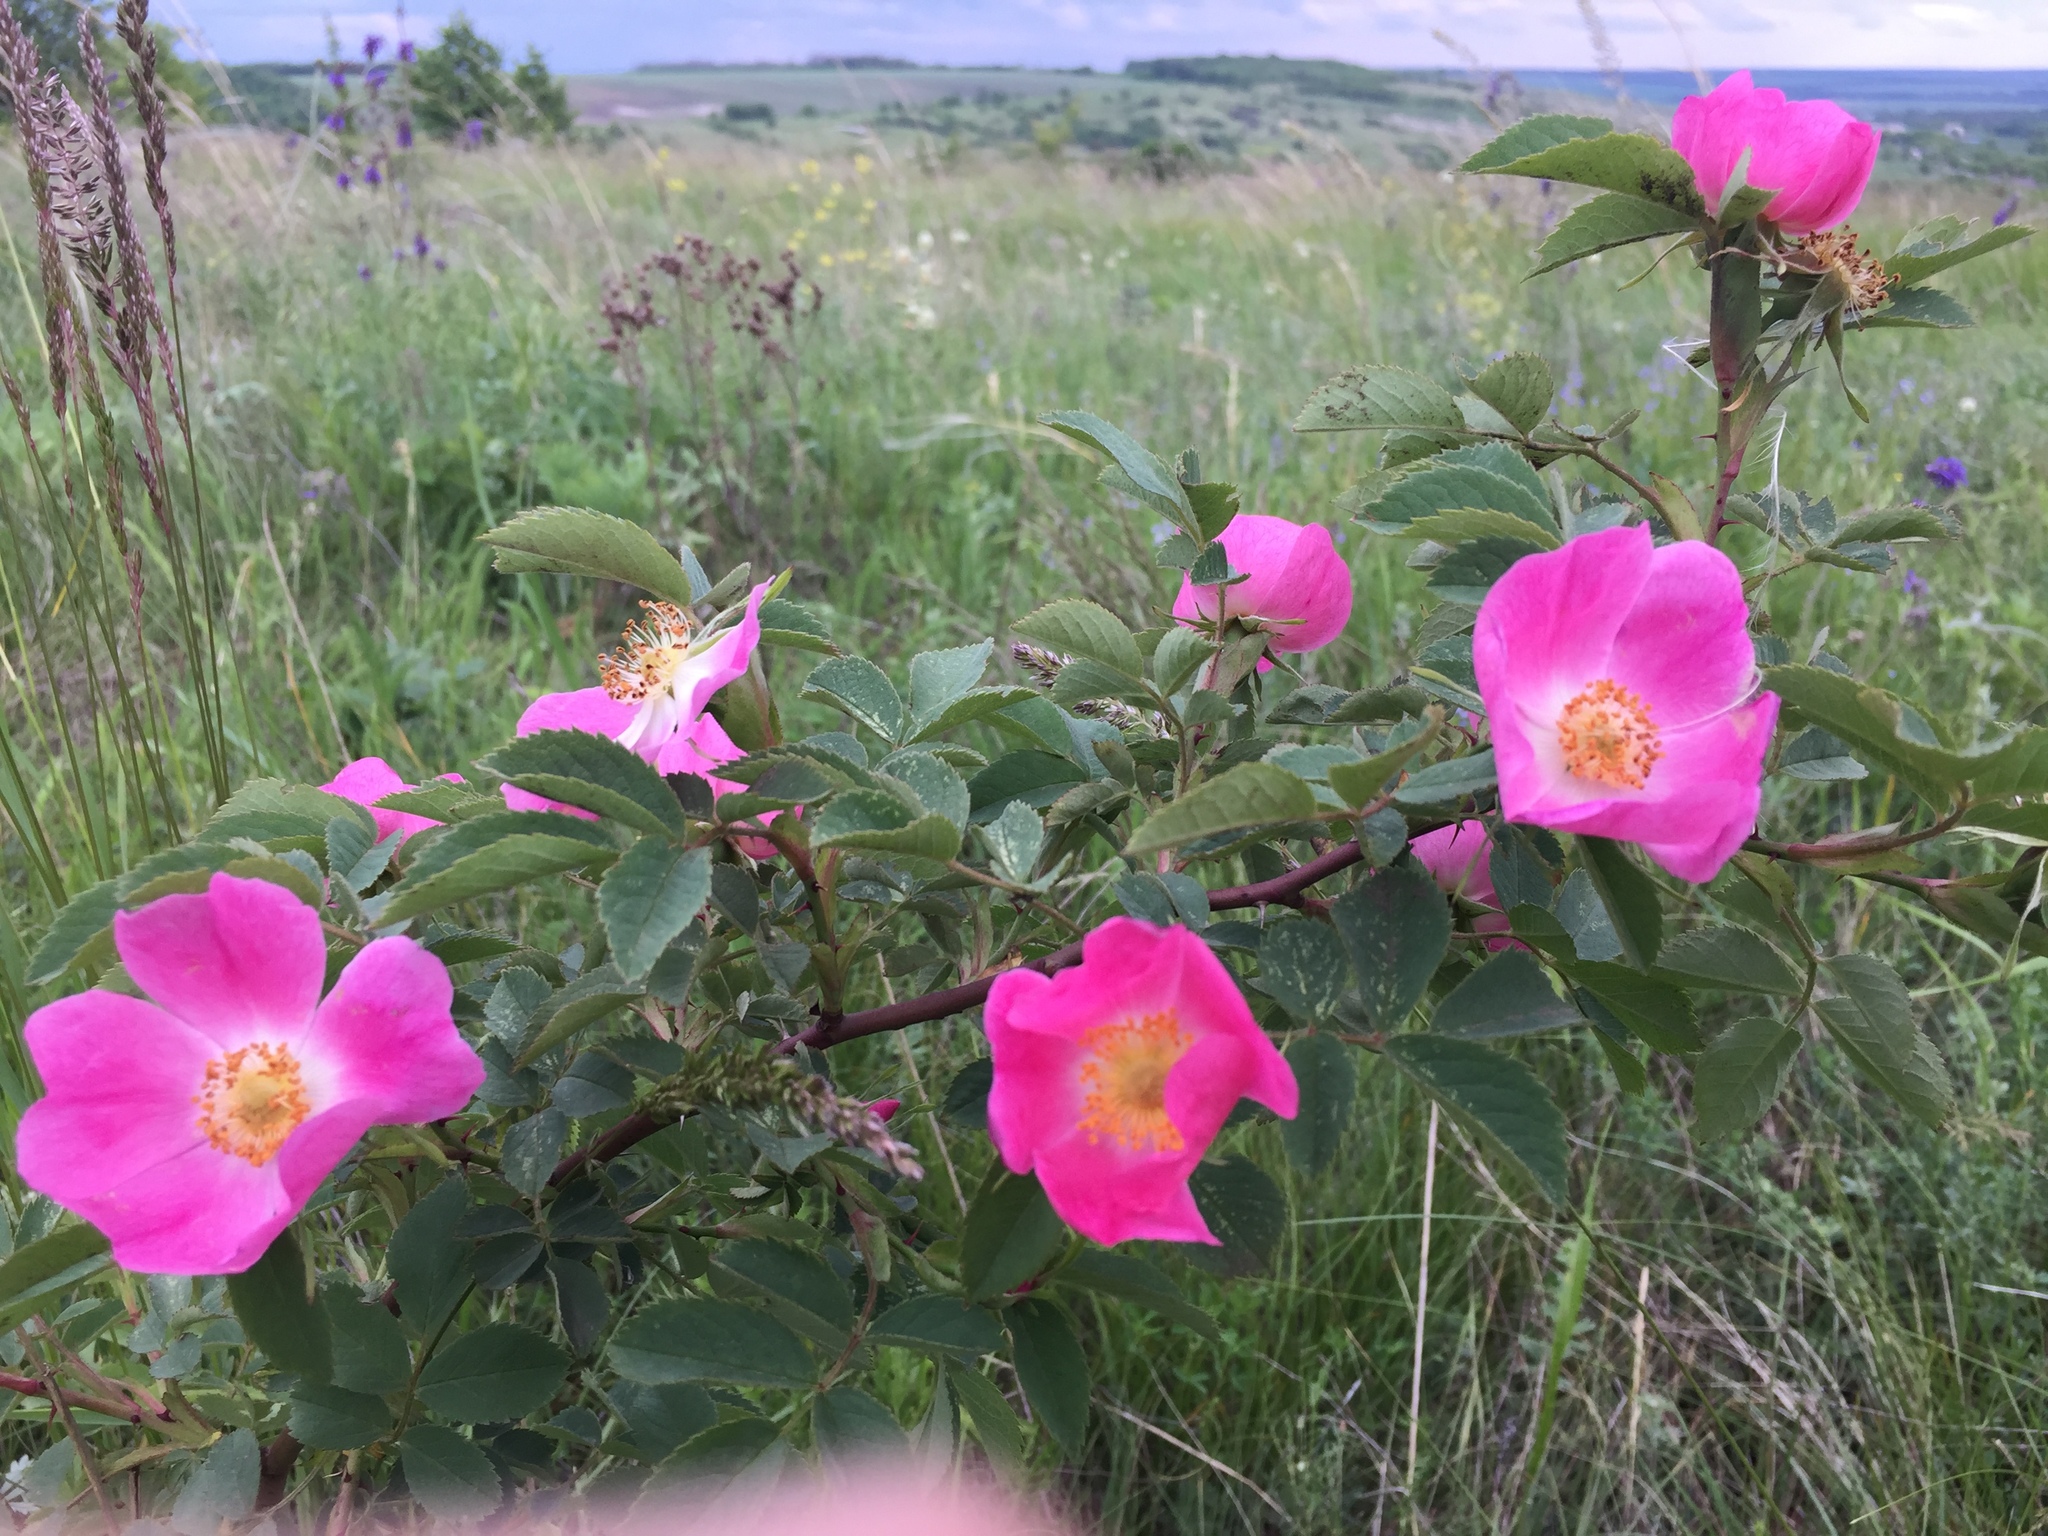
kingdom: Plantae
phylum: Tracheophyta
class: Magnoliopsida
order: Rosales
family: Rosaceae
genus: Rosa
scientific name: Rosa
